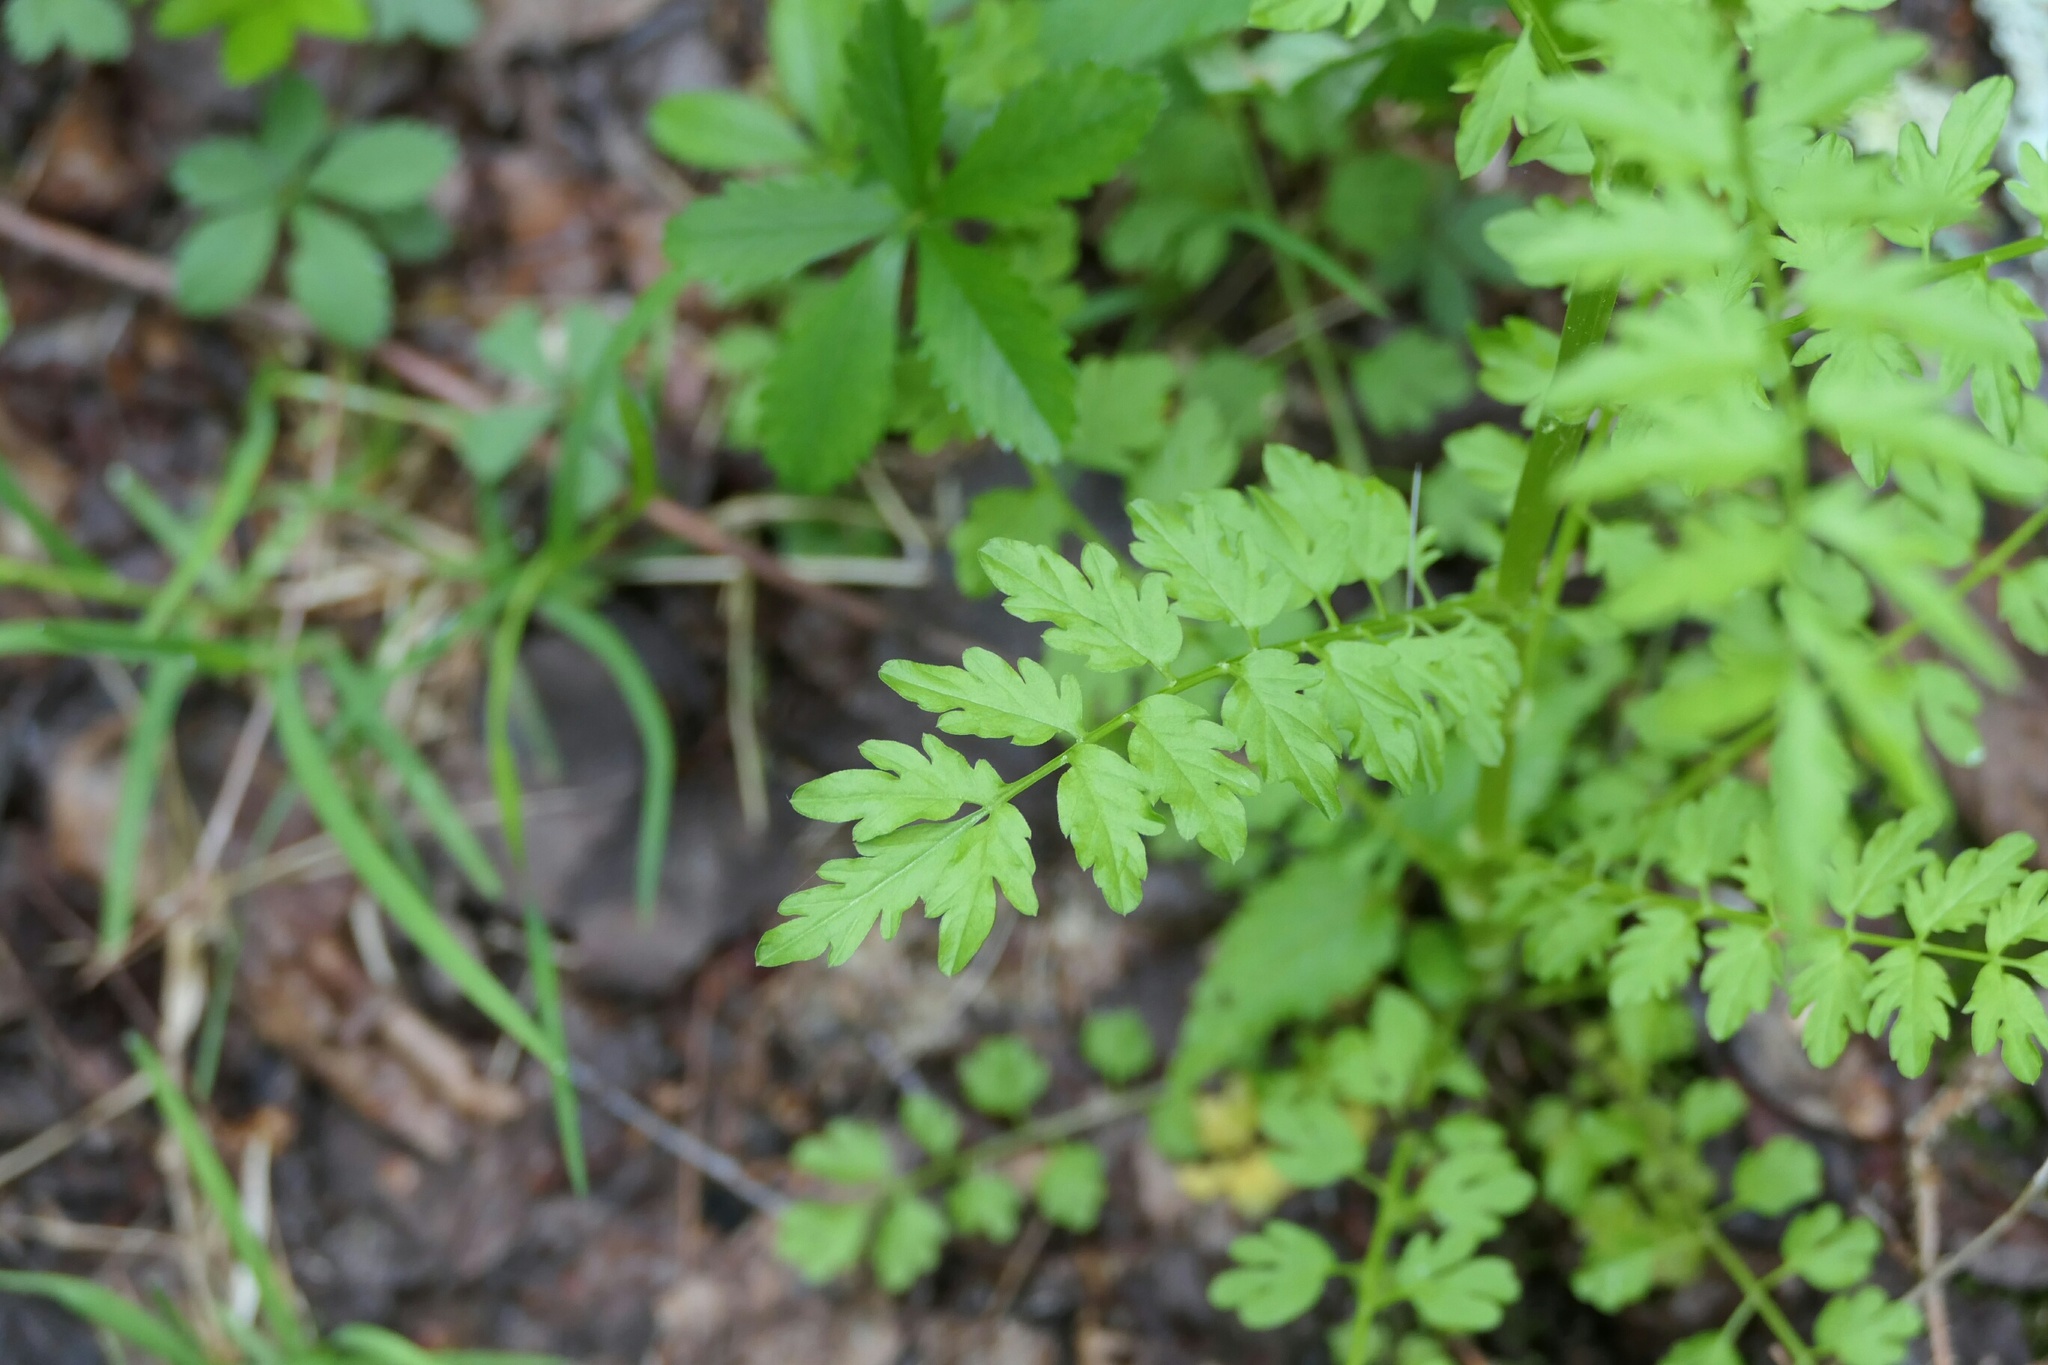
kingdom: Plantae
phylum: Tracheophyta
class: Magnoliopsida
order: Brassicales
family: Brassicaceae
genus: Cardamine
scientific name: Cardamine impatiens
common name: Narrow-leaved bitter-cress
